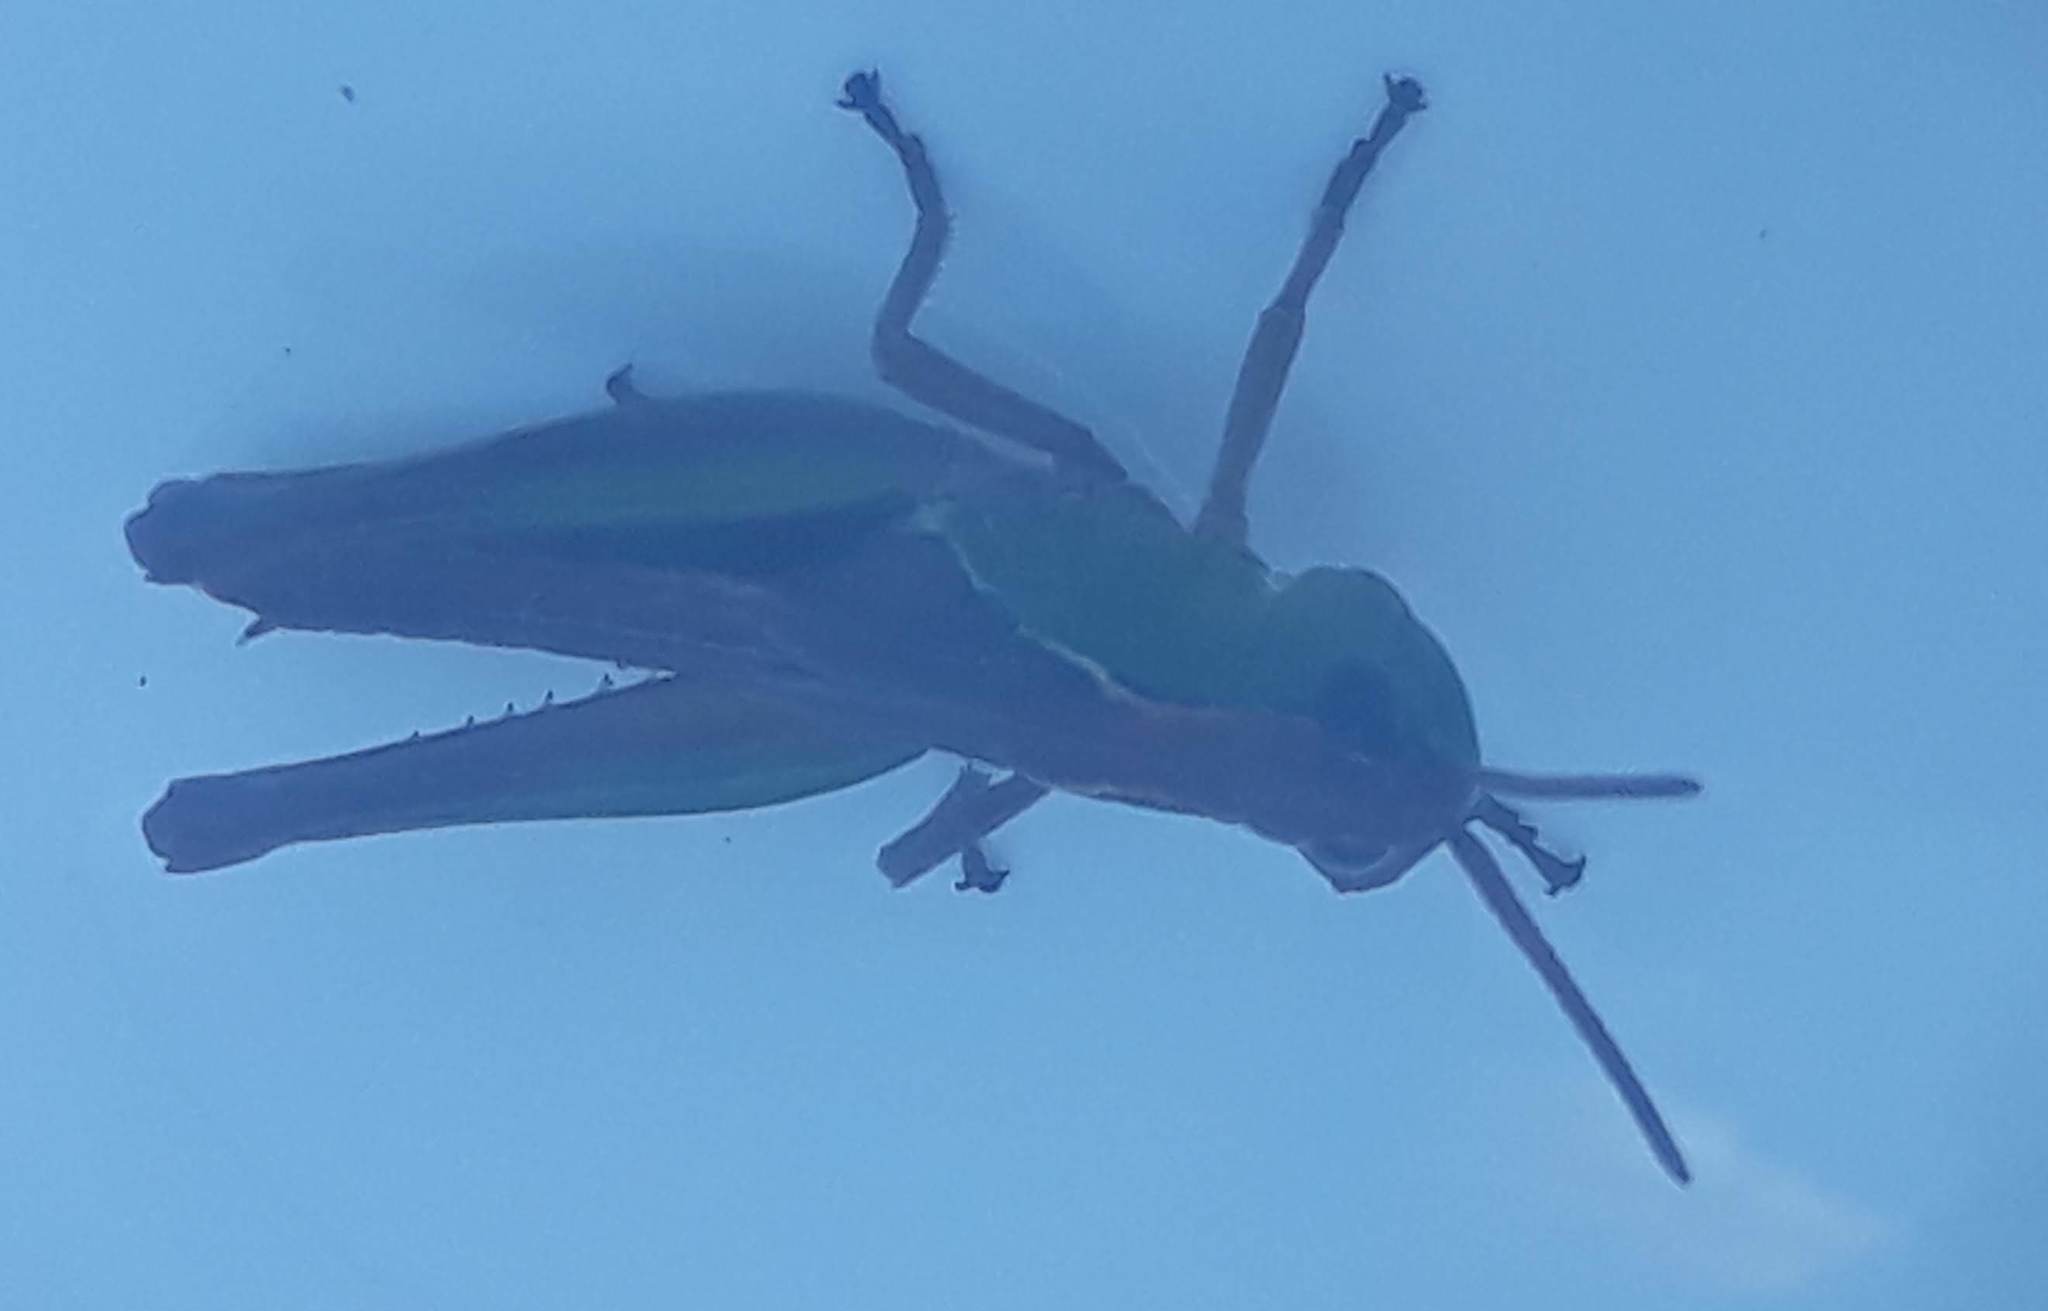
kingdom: Animalia
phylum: Arthropoda
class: Insecta
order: Orthoptera
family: Acrididae
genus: Pseudochorthippus
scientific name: Pseudochorthippus parallelus
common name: Meadow grasshopper
